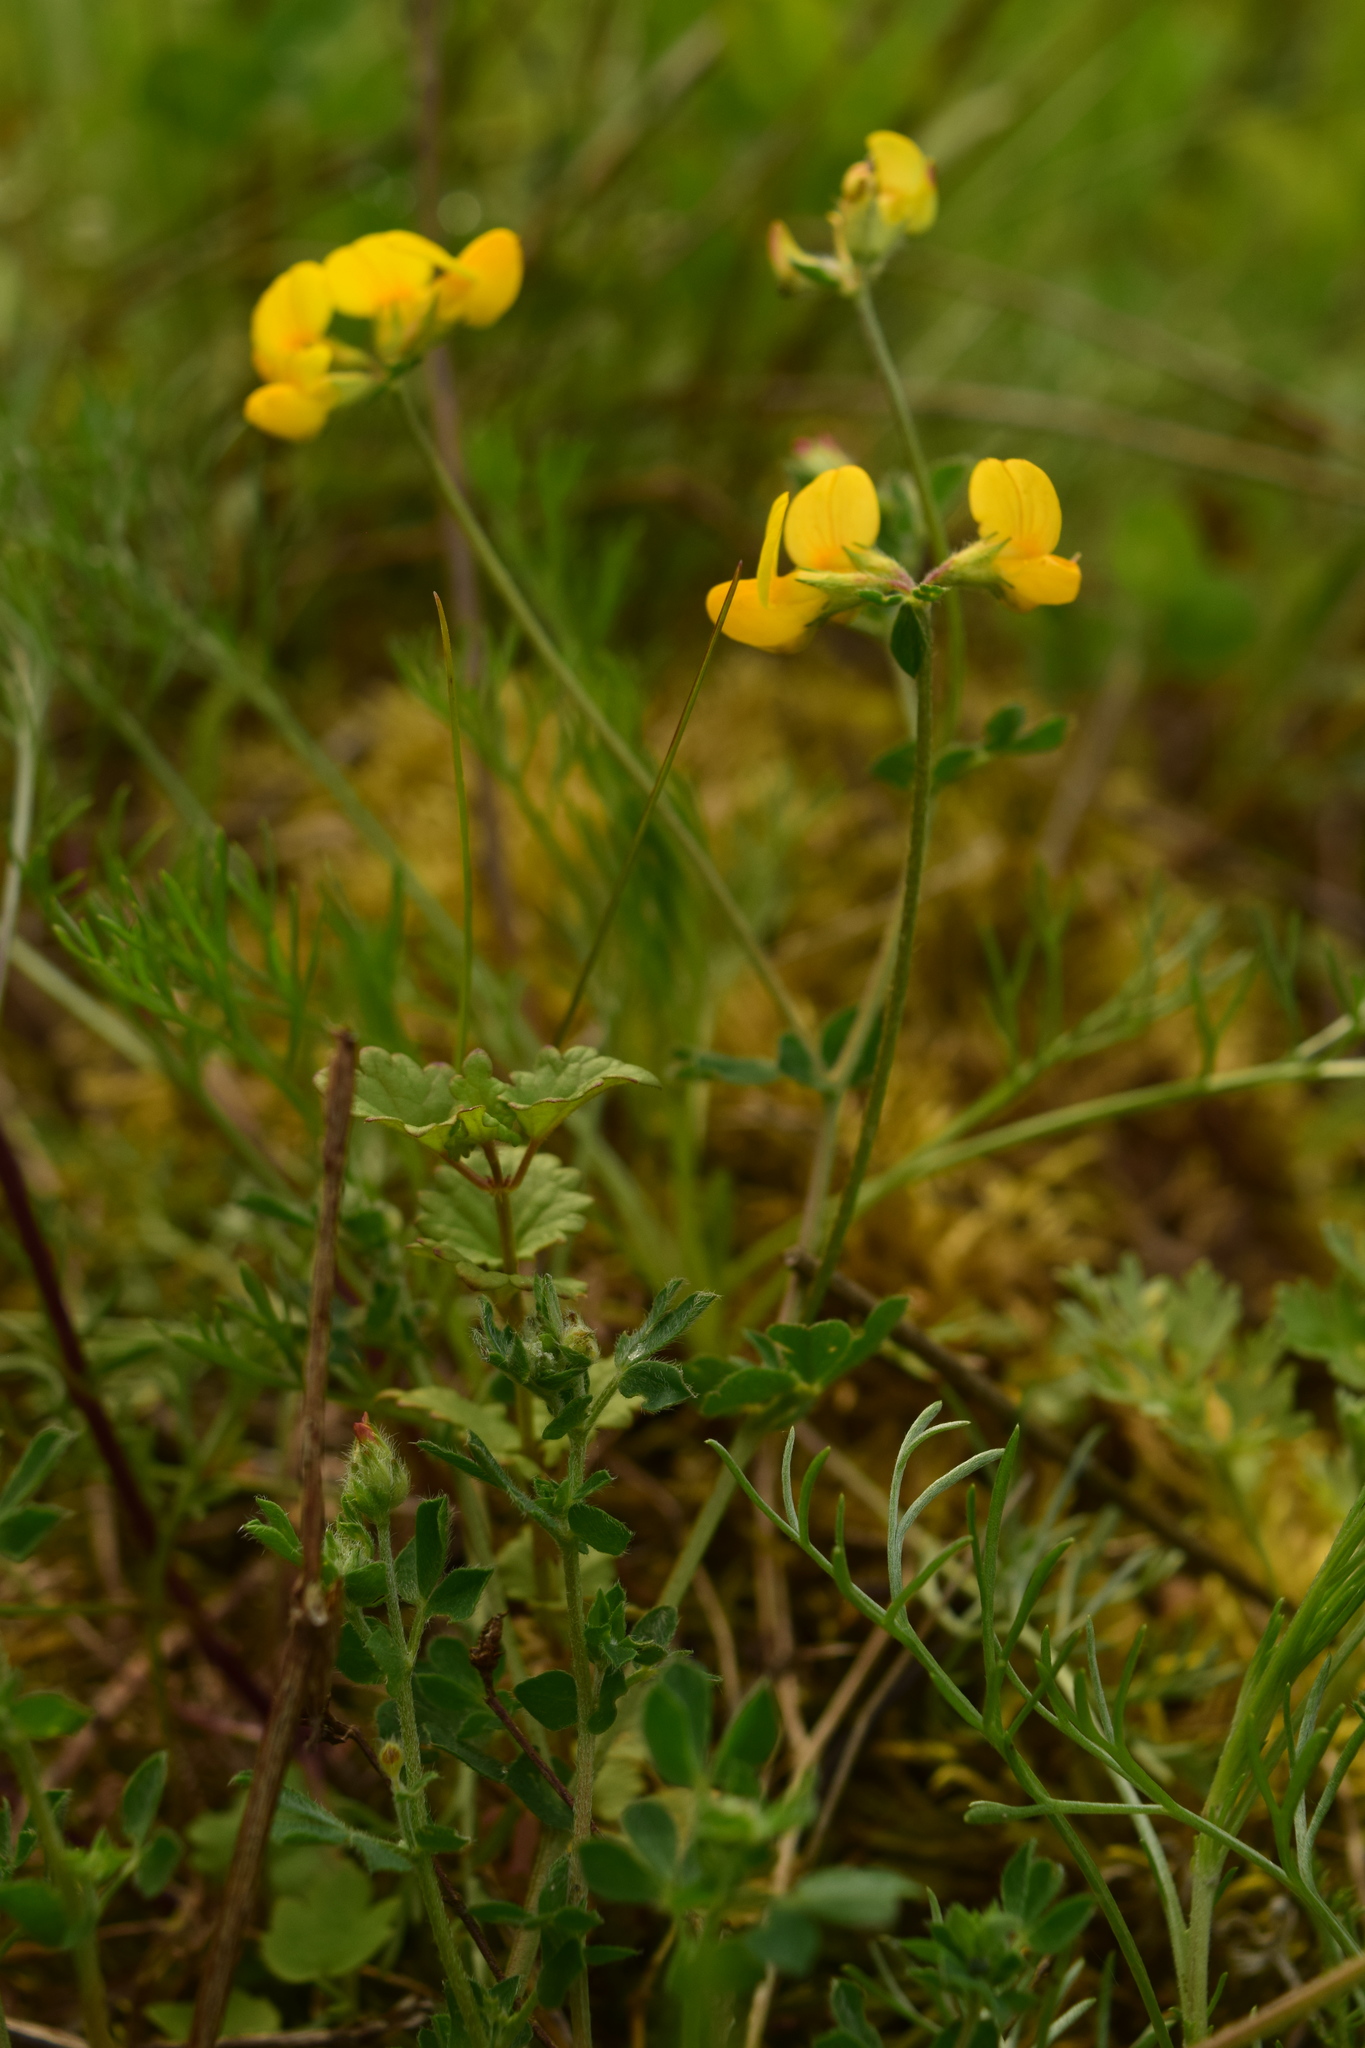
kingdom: Plantae
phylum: Tracheophyta
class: Magnoliopsida
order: Fabales
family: Fabaceae
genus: Lotus
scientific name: Lotus corniculatus
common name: Common bird's-foot-trefoil
